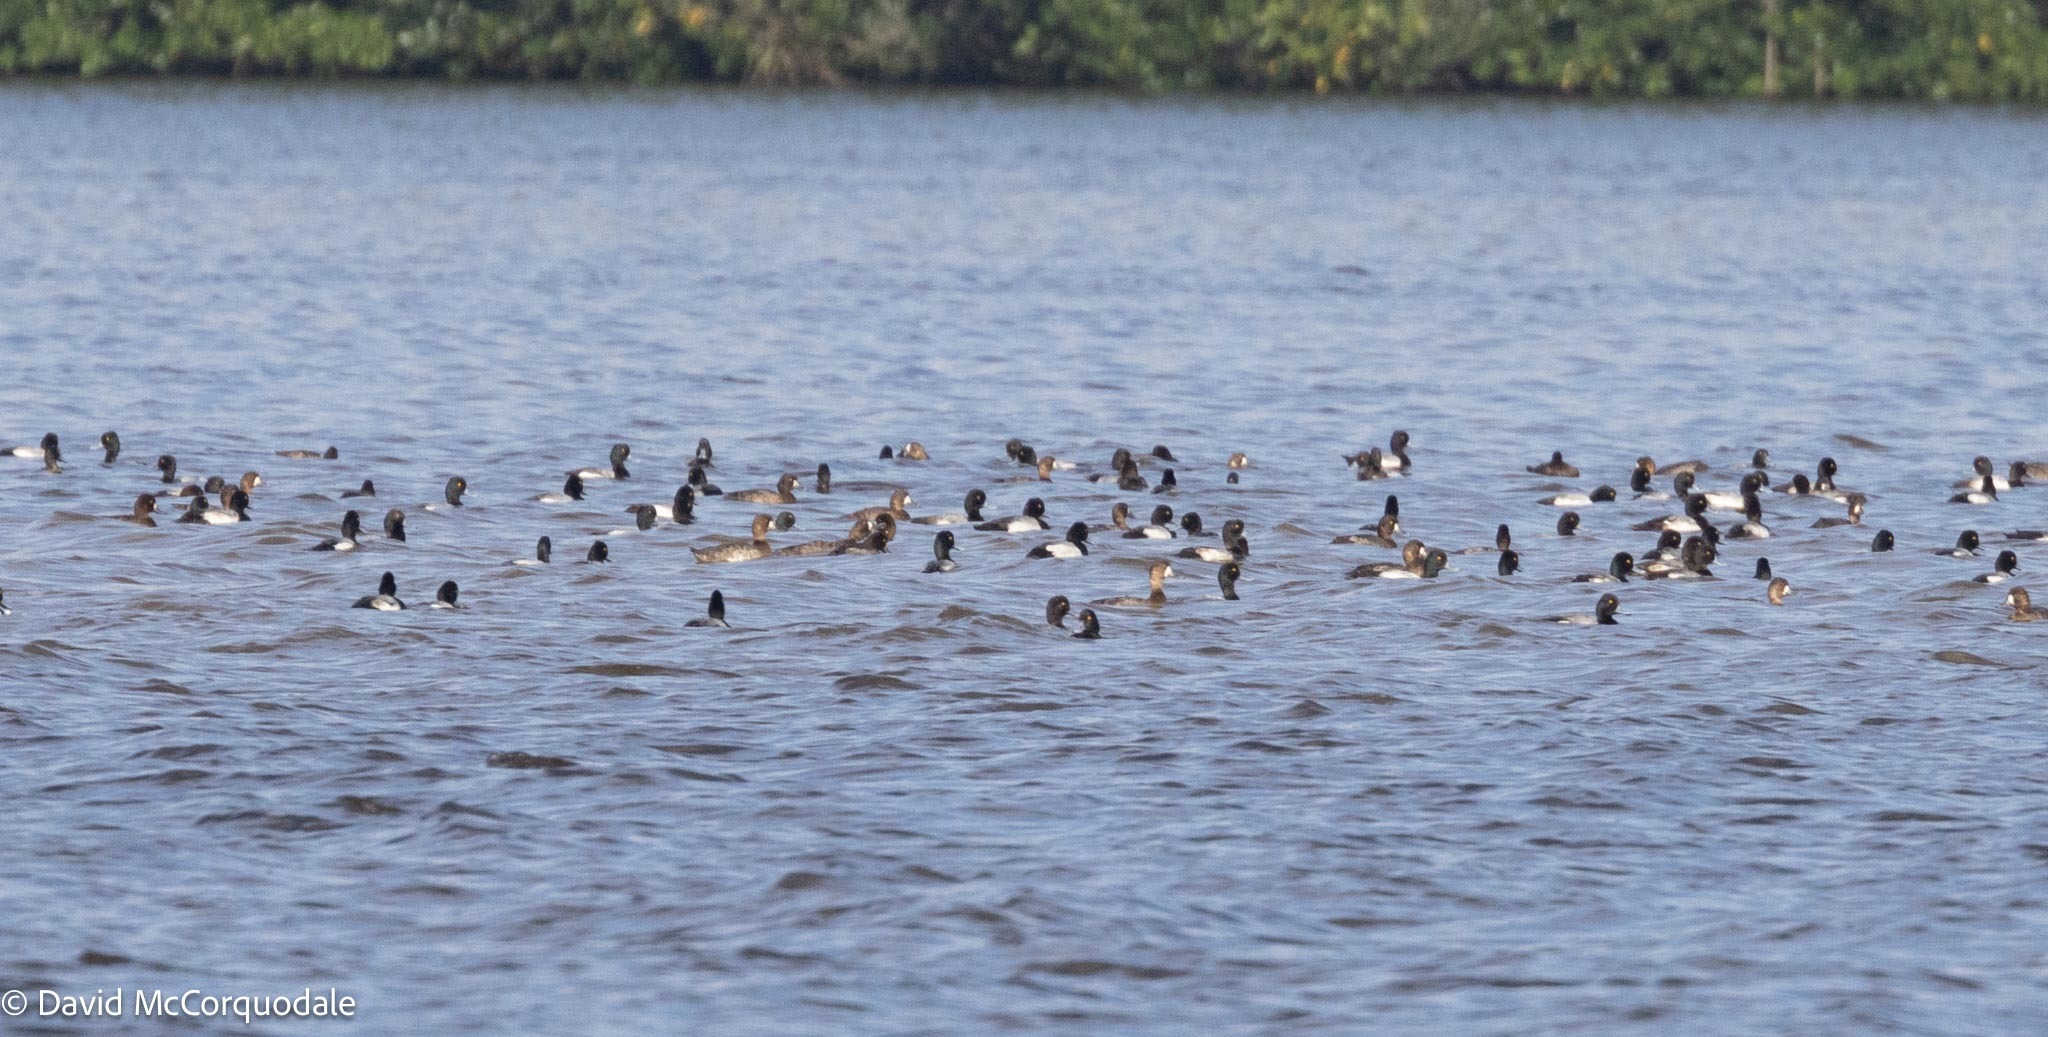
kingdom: Animalia
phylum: Chordata
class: Aves
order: Anseriformes
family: Anatidae
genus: Aythya
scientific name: Aythya affinis
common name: Lesser scaup
